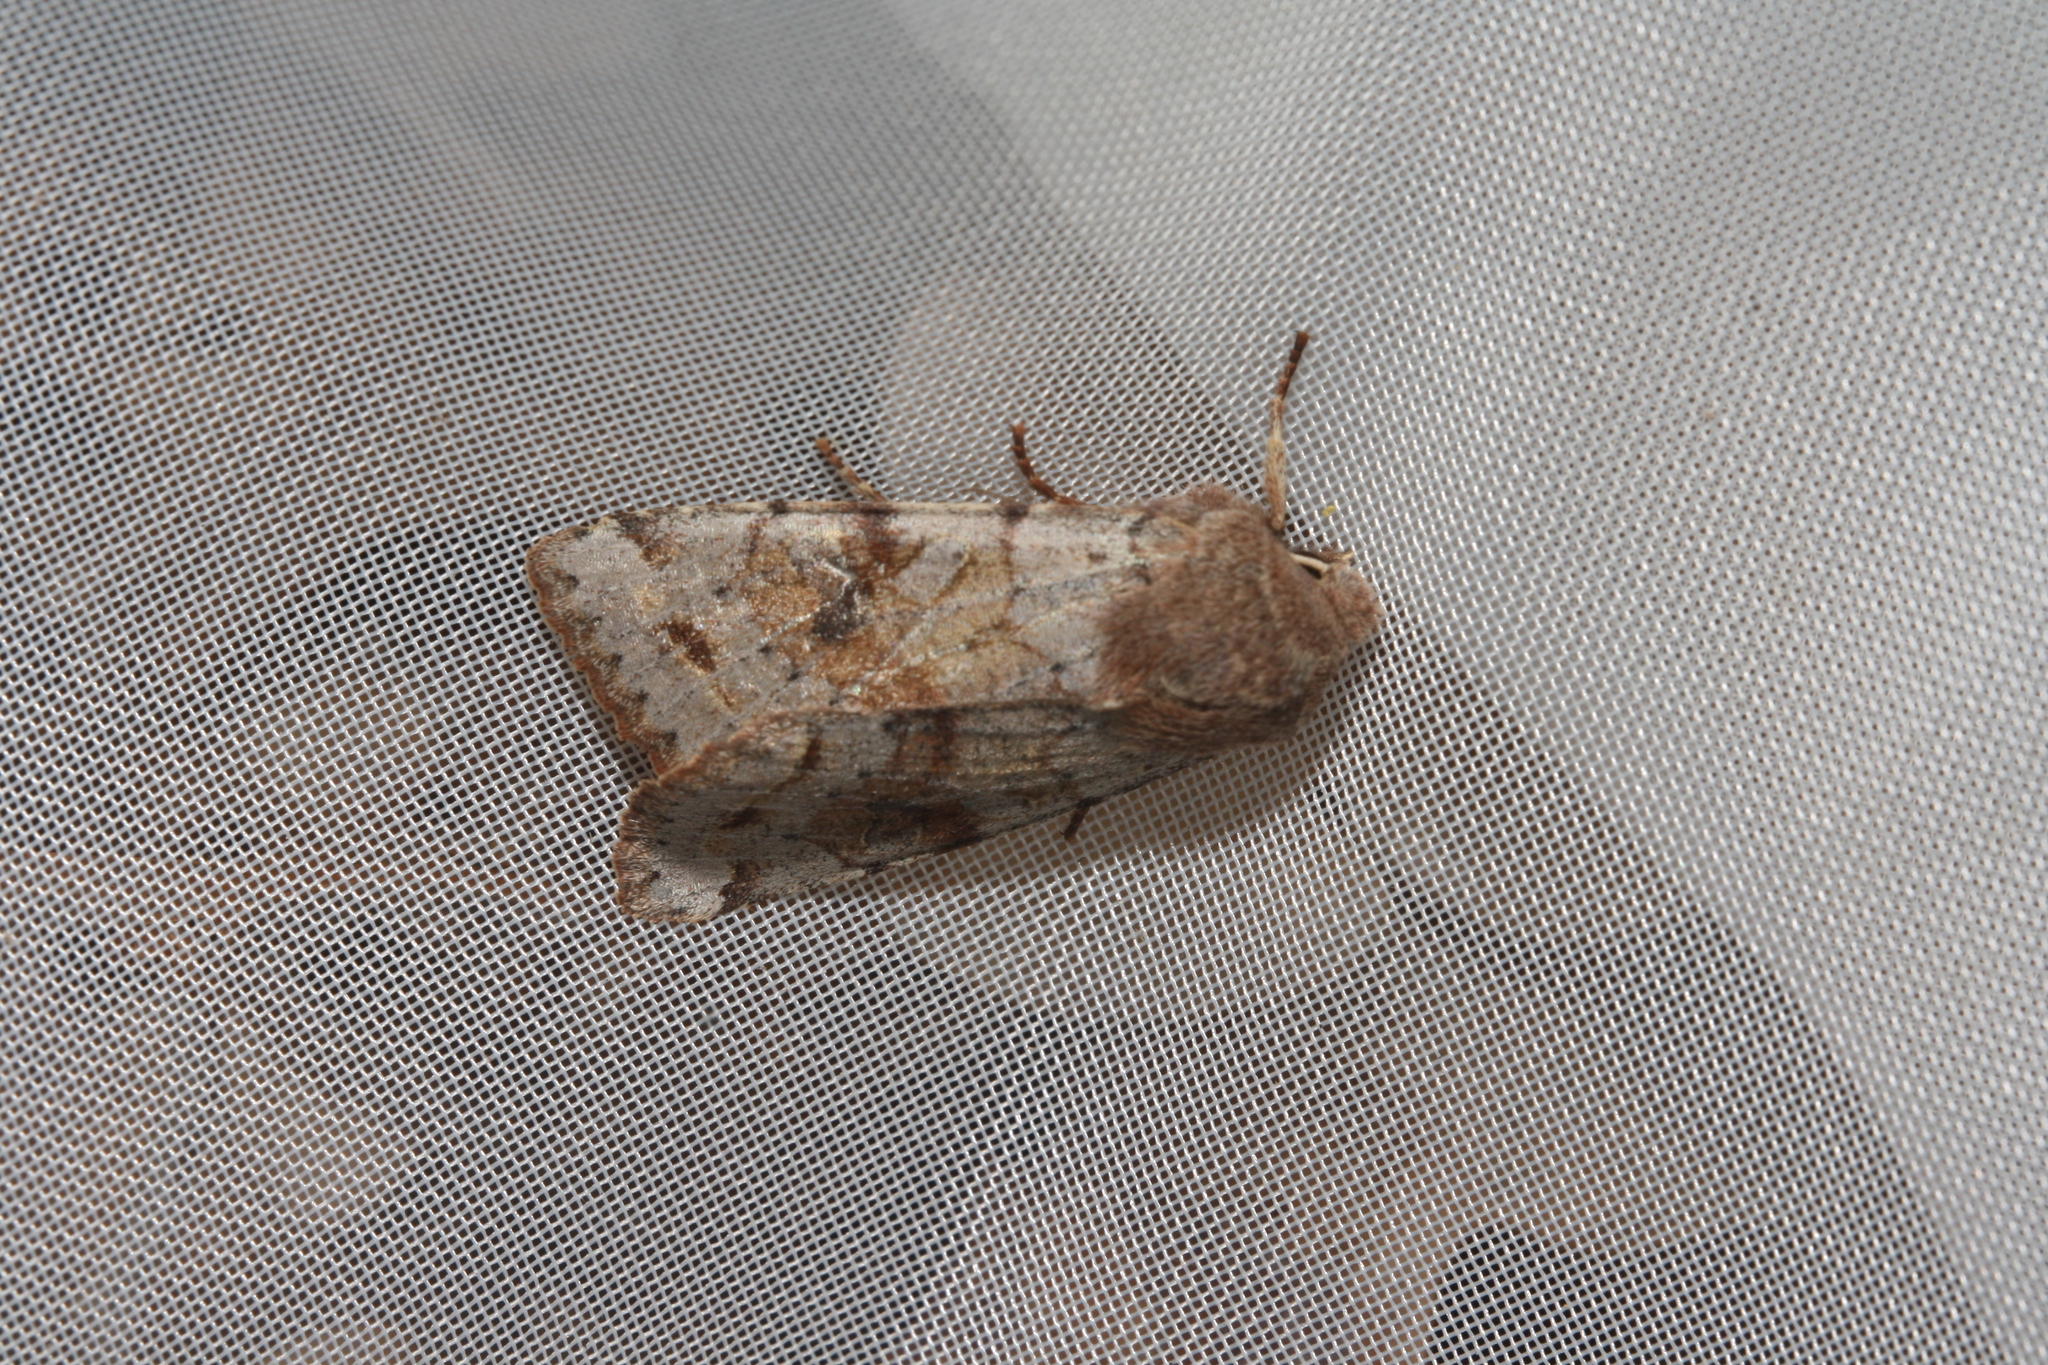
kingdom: Animalia
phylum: Arthropoda
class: Insecta
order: Lepidoptera
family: Noctuidae
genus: Orthosia
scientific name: Orthosia incerta
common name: Clouded drab
